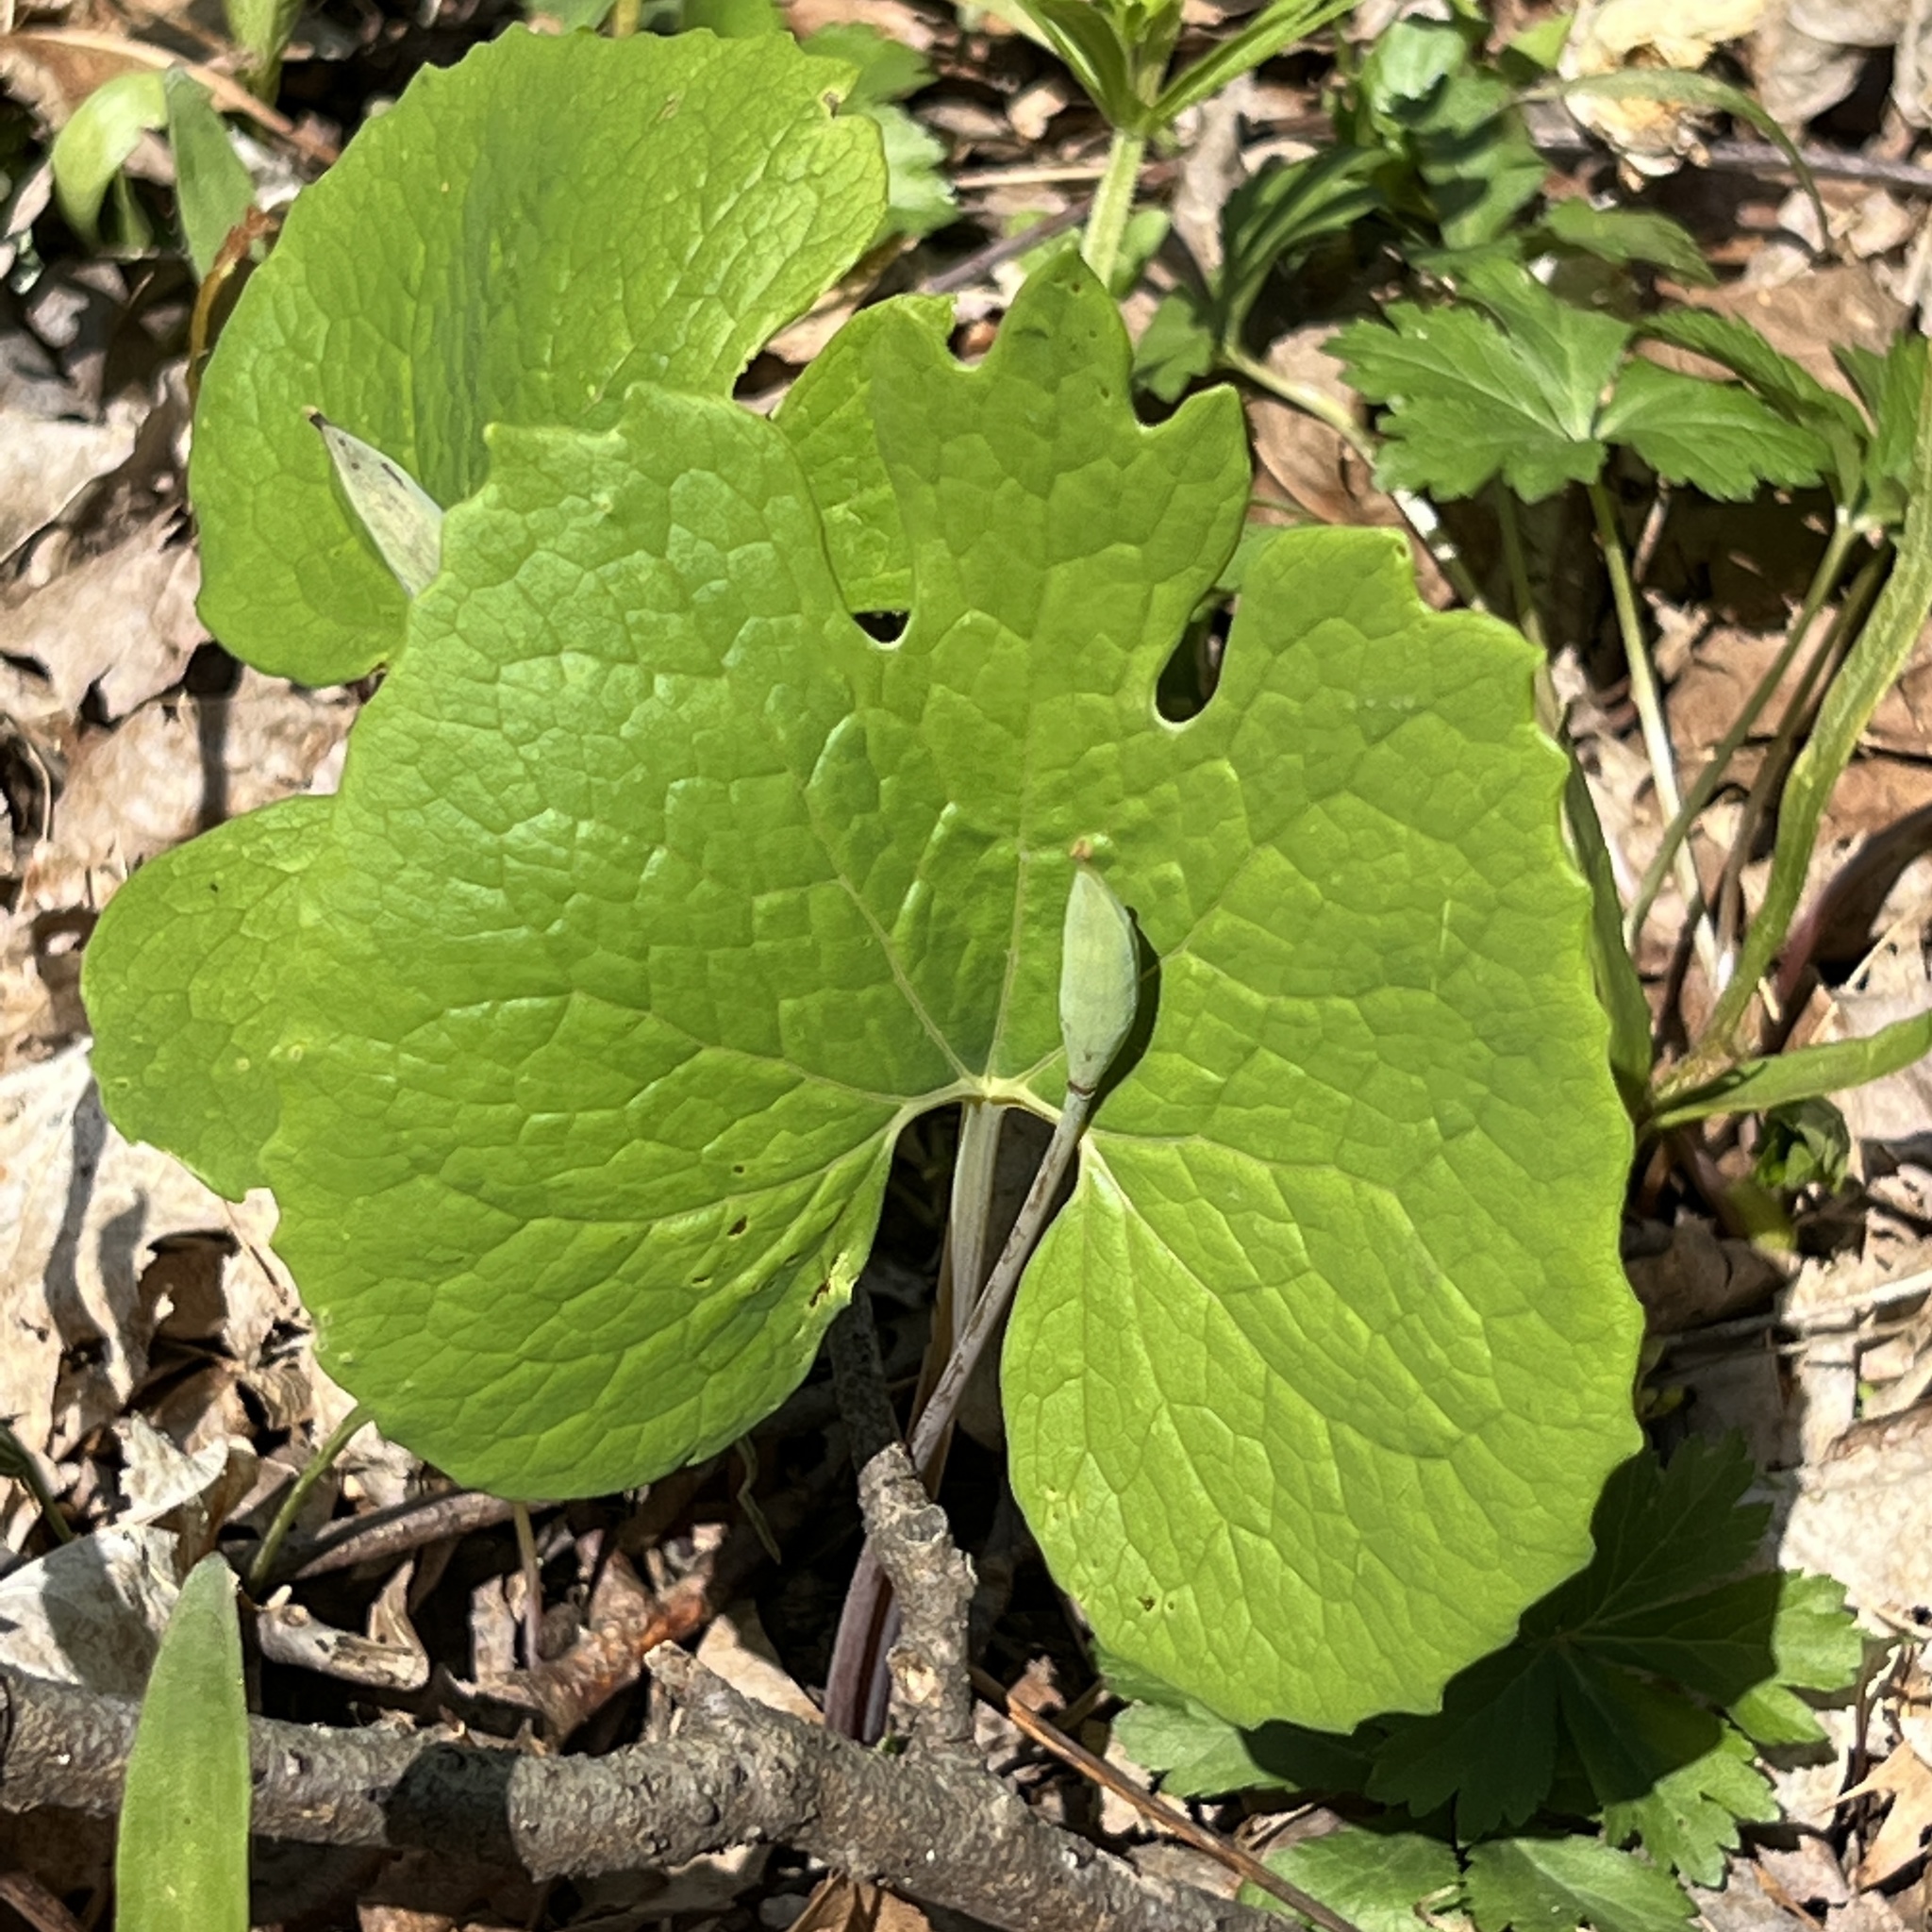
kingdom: Plantae
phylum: Tracheophyta
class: Magnoliopsida
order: Ranunculales
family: Papaveraceae
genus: Sanguinaria
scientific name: Sanguinaria canadensis
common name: Bloodroot
